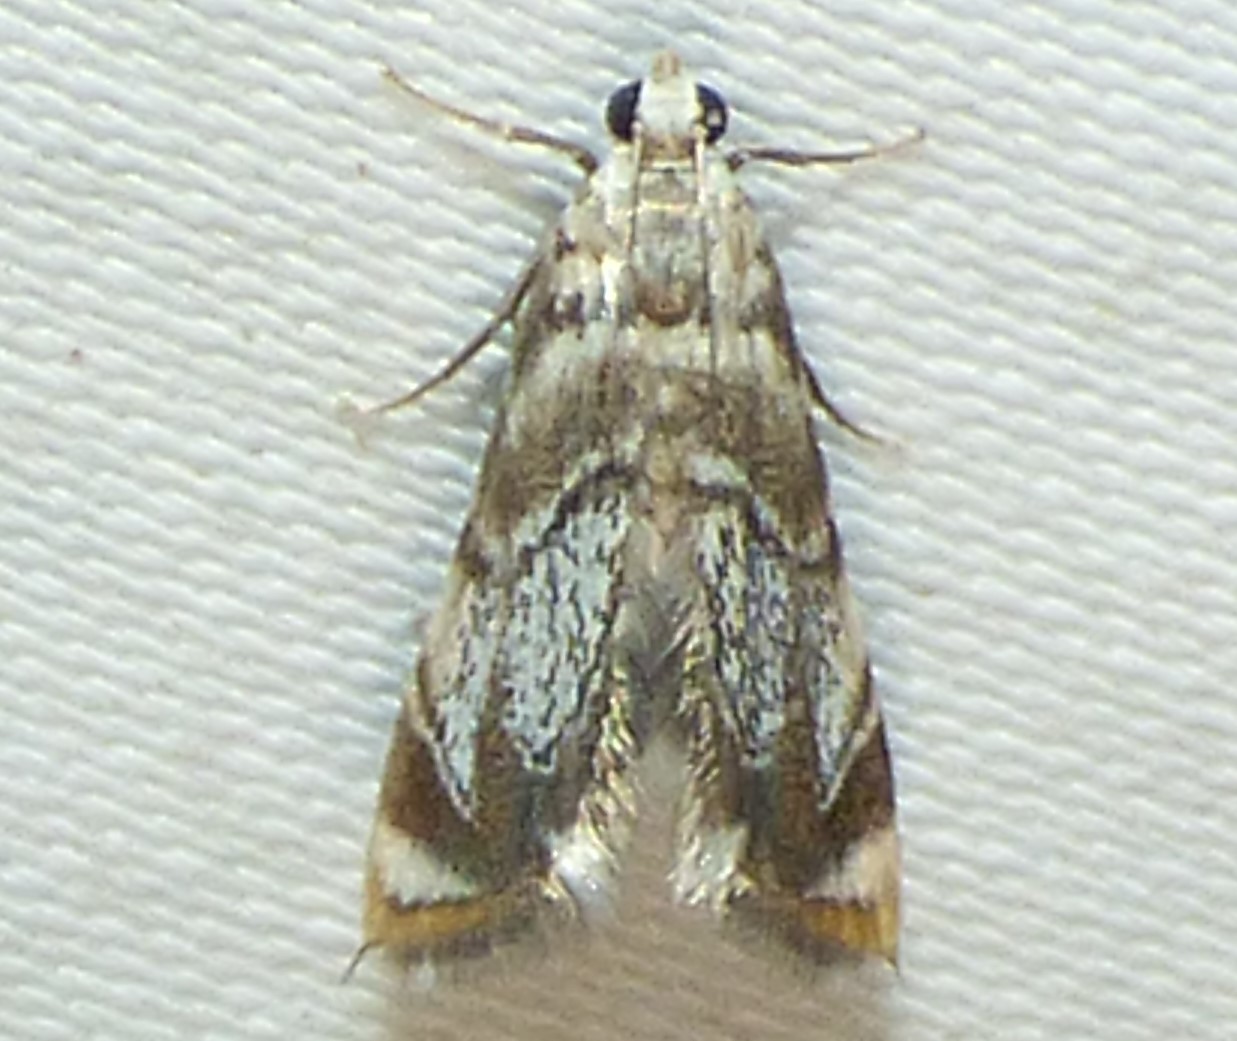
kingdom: Animalia
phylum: Arthropoda
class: Insecta
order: Lepidoptera
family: Crambidae
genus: Eoparargyractis
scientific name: Eoparargyractis irroratalis
